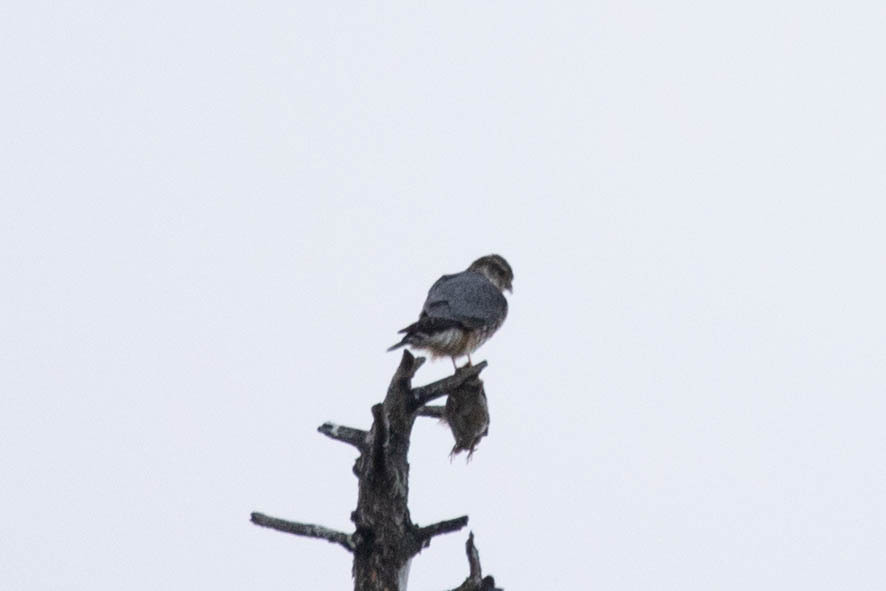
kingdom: Animalia
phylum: Chordata
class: Aves
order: Falconiformes
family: Falconidae
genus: Falco
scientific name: Falco columbarius
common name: Merlin
